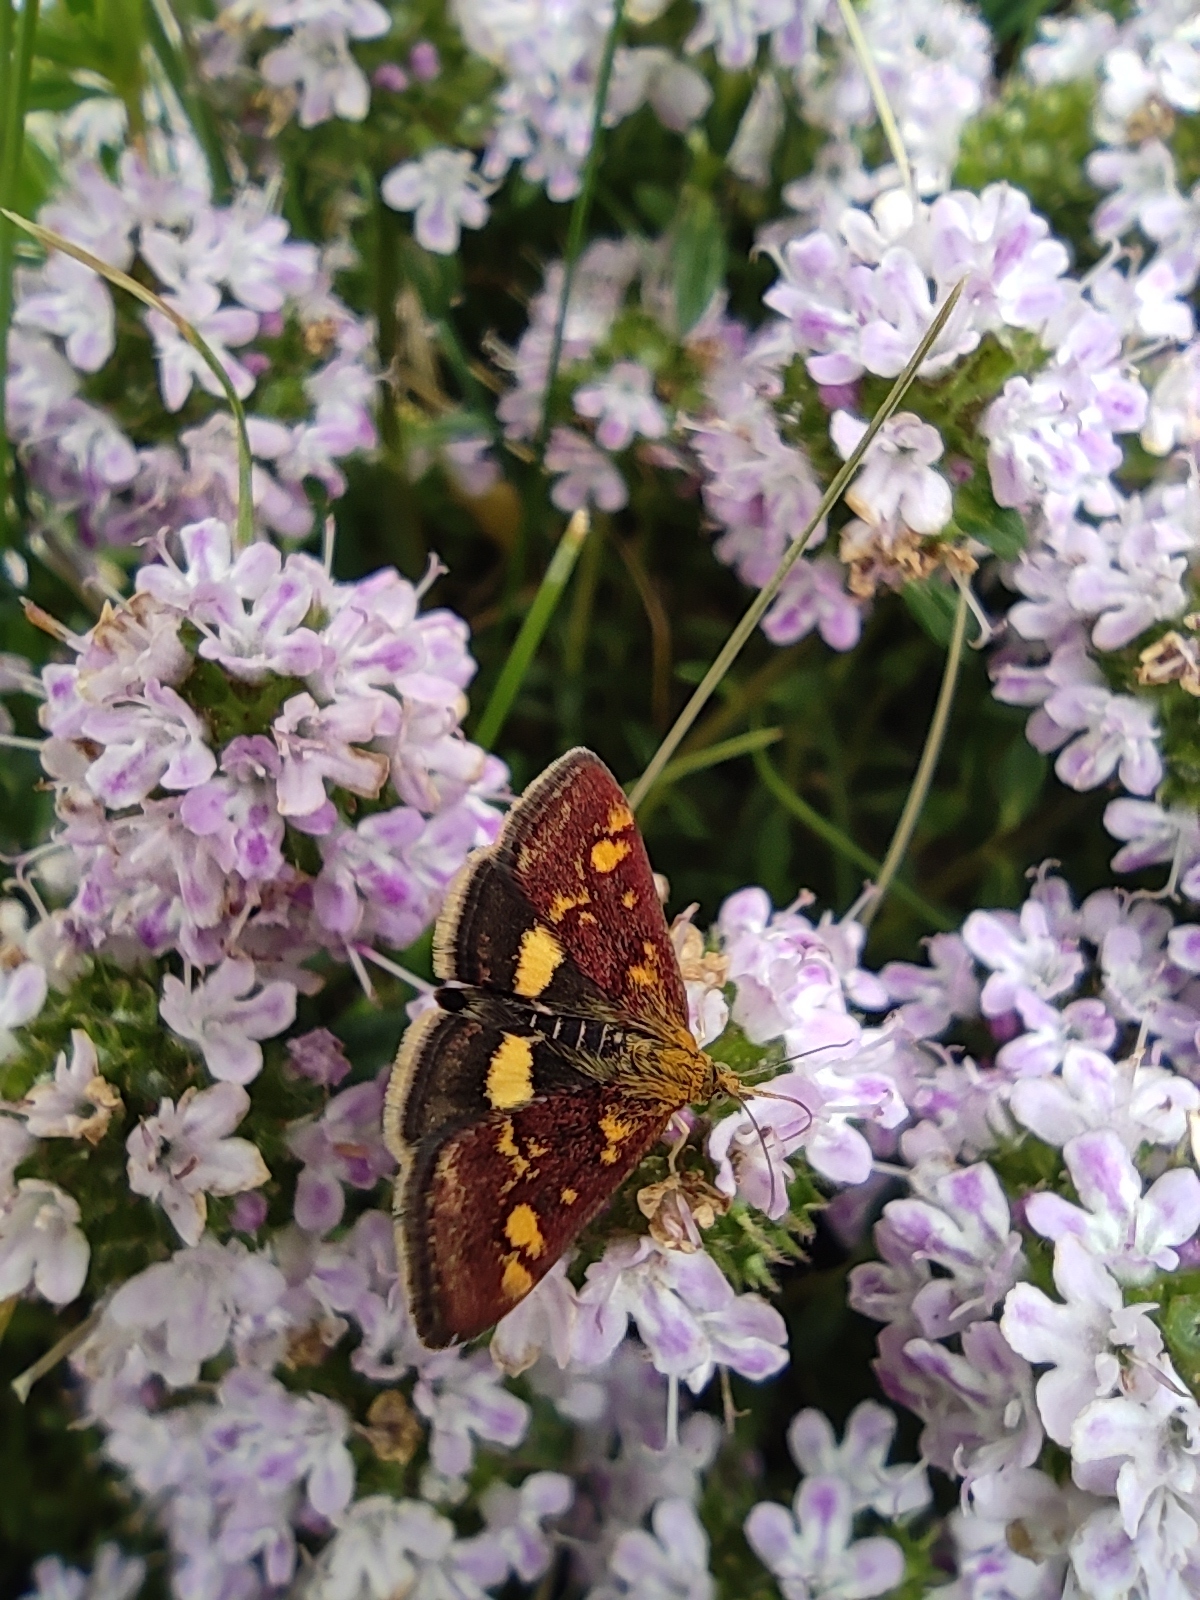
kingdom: Animalia
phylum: Arthropoda
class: Insecta
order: Lepidoptera
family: Crambidae
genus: Pyrausta
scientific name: Pyrausta aurata
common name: Small purple & gold
